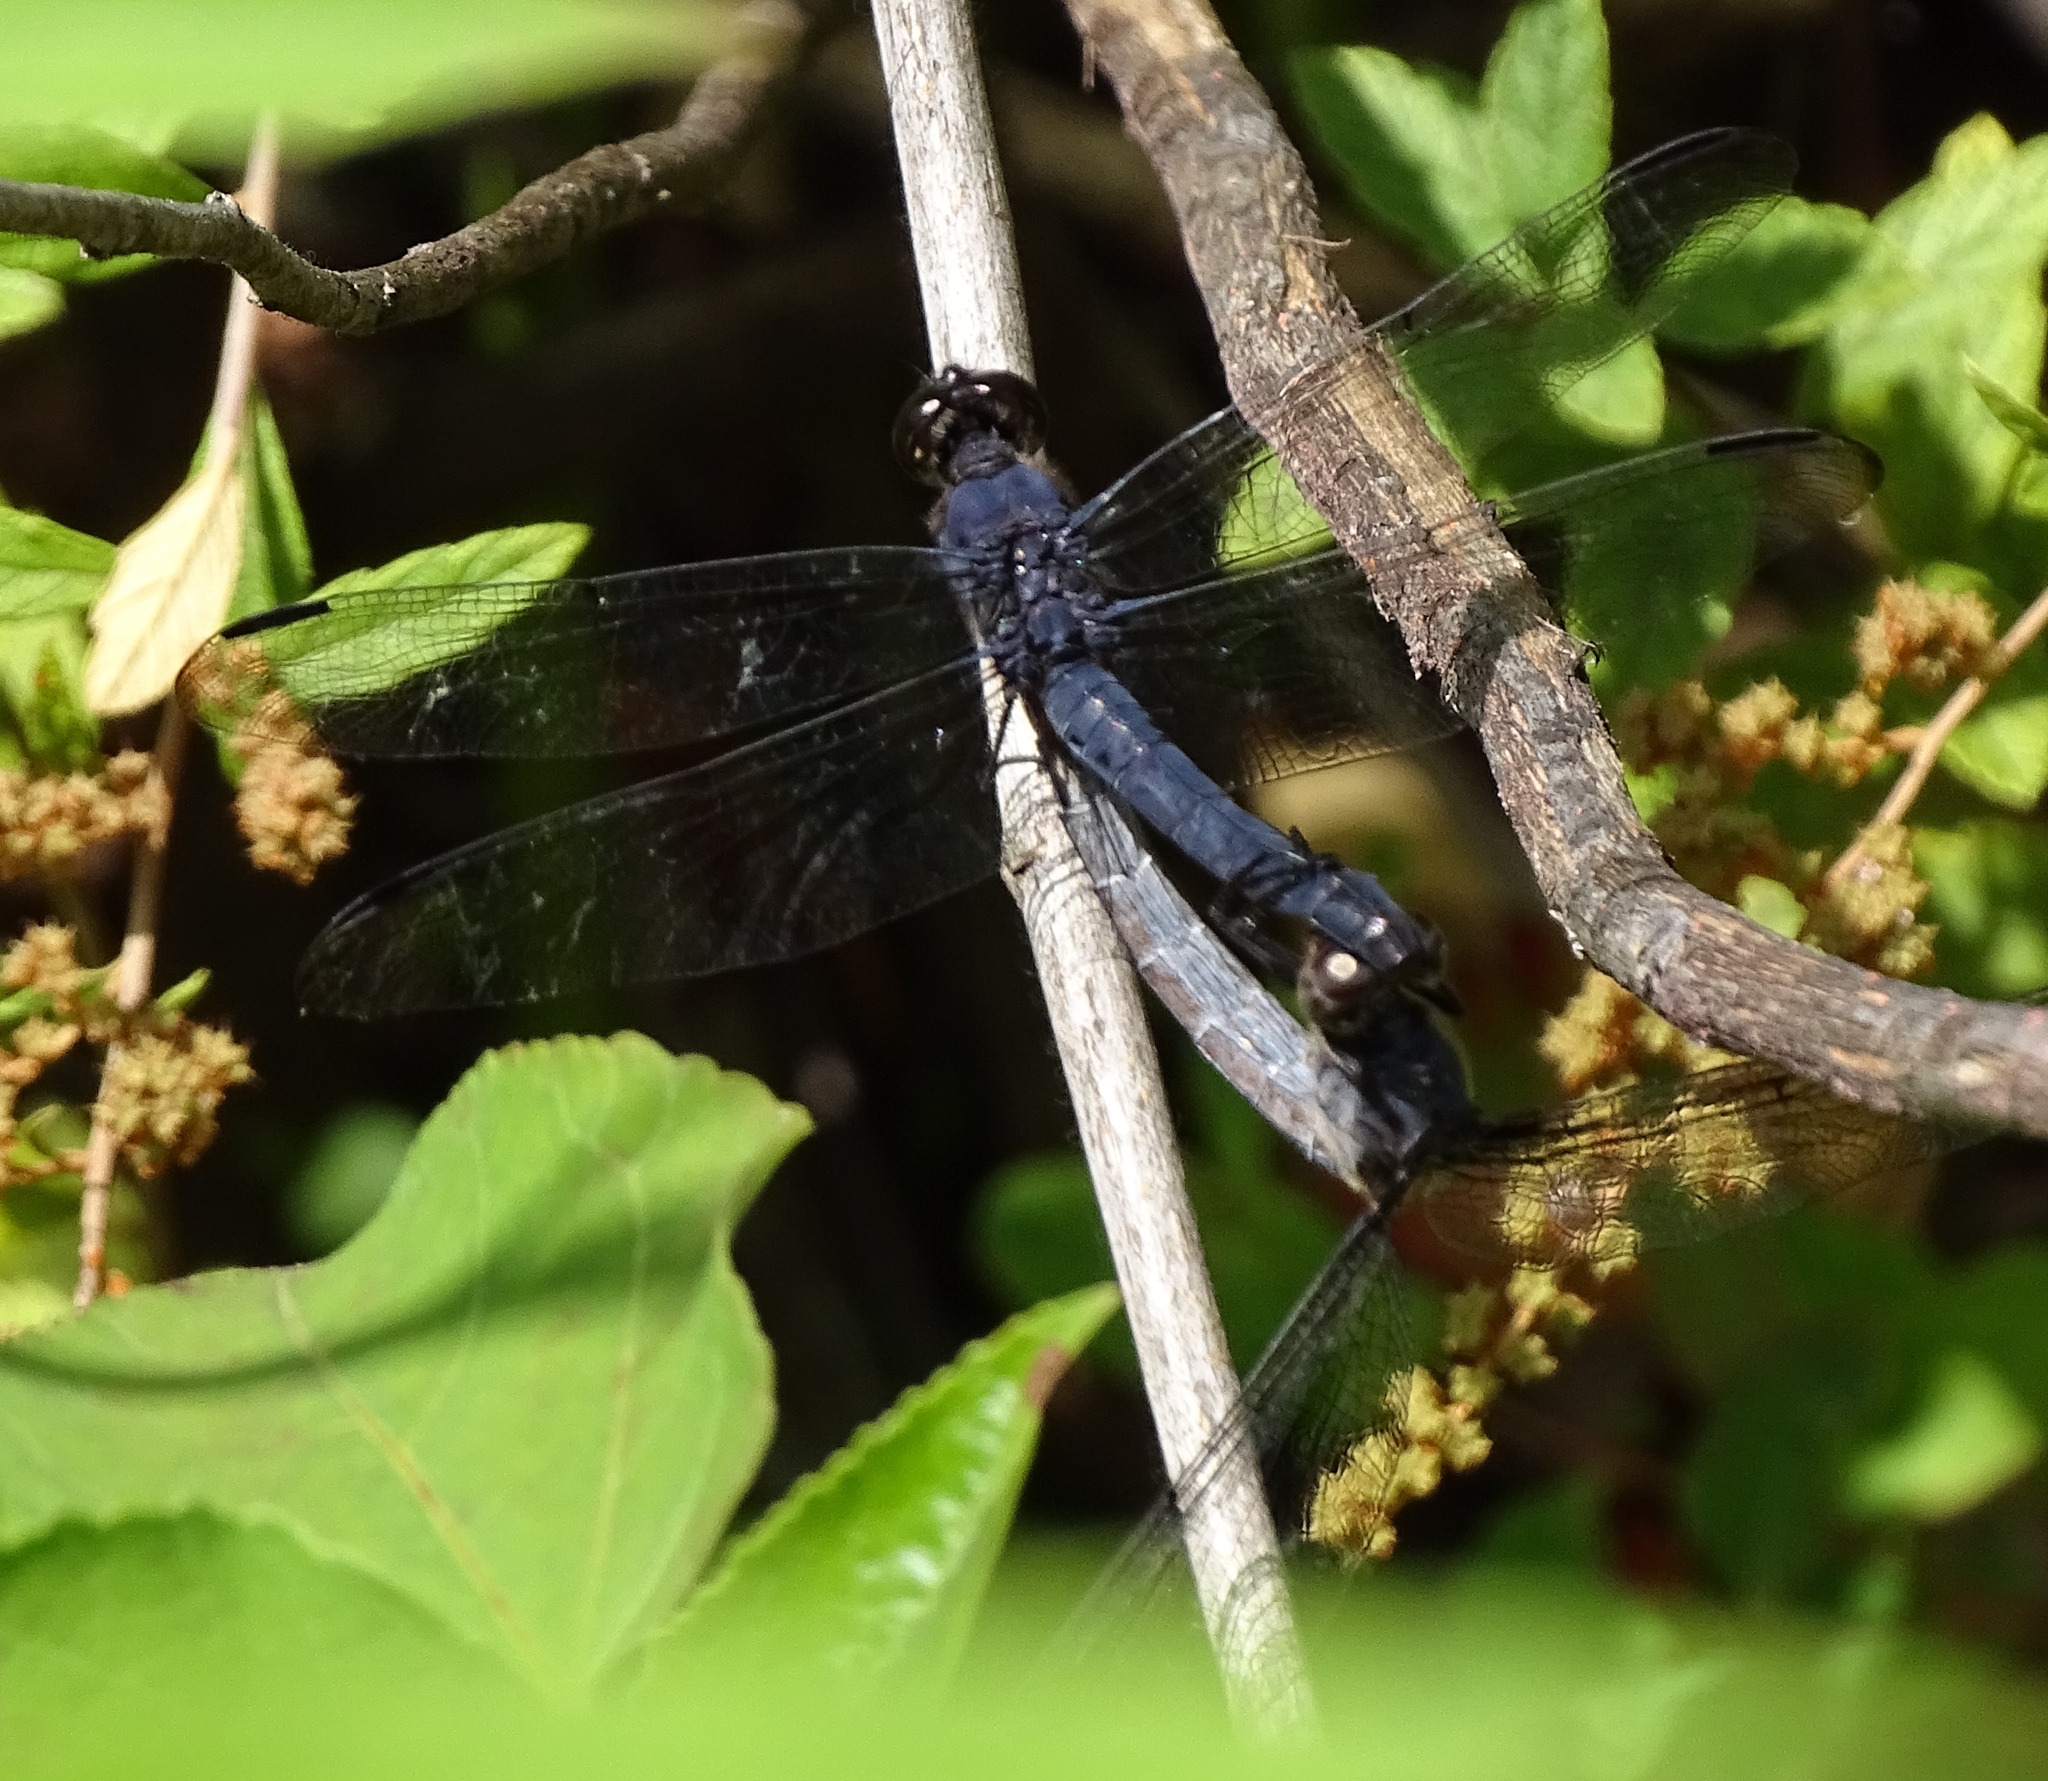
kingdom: Animalia
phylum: Arthropoda
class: Insecta
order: Odonata
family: Libellulidae
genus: Libellula
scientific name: Libellula incesta
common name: Slaty skimmer
